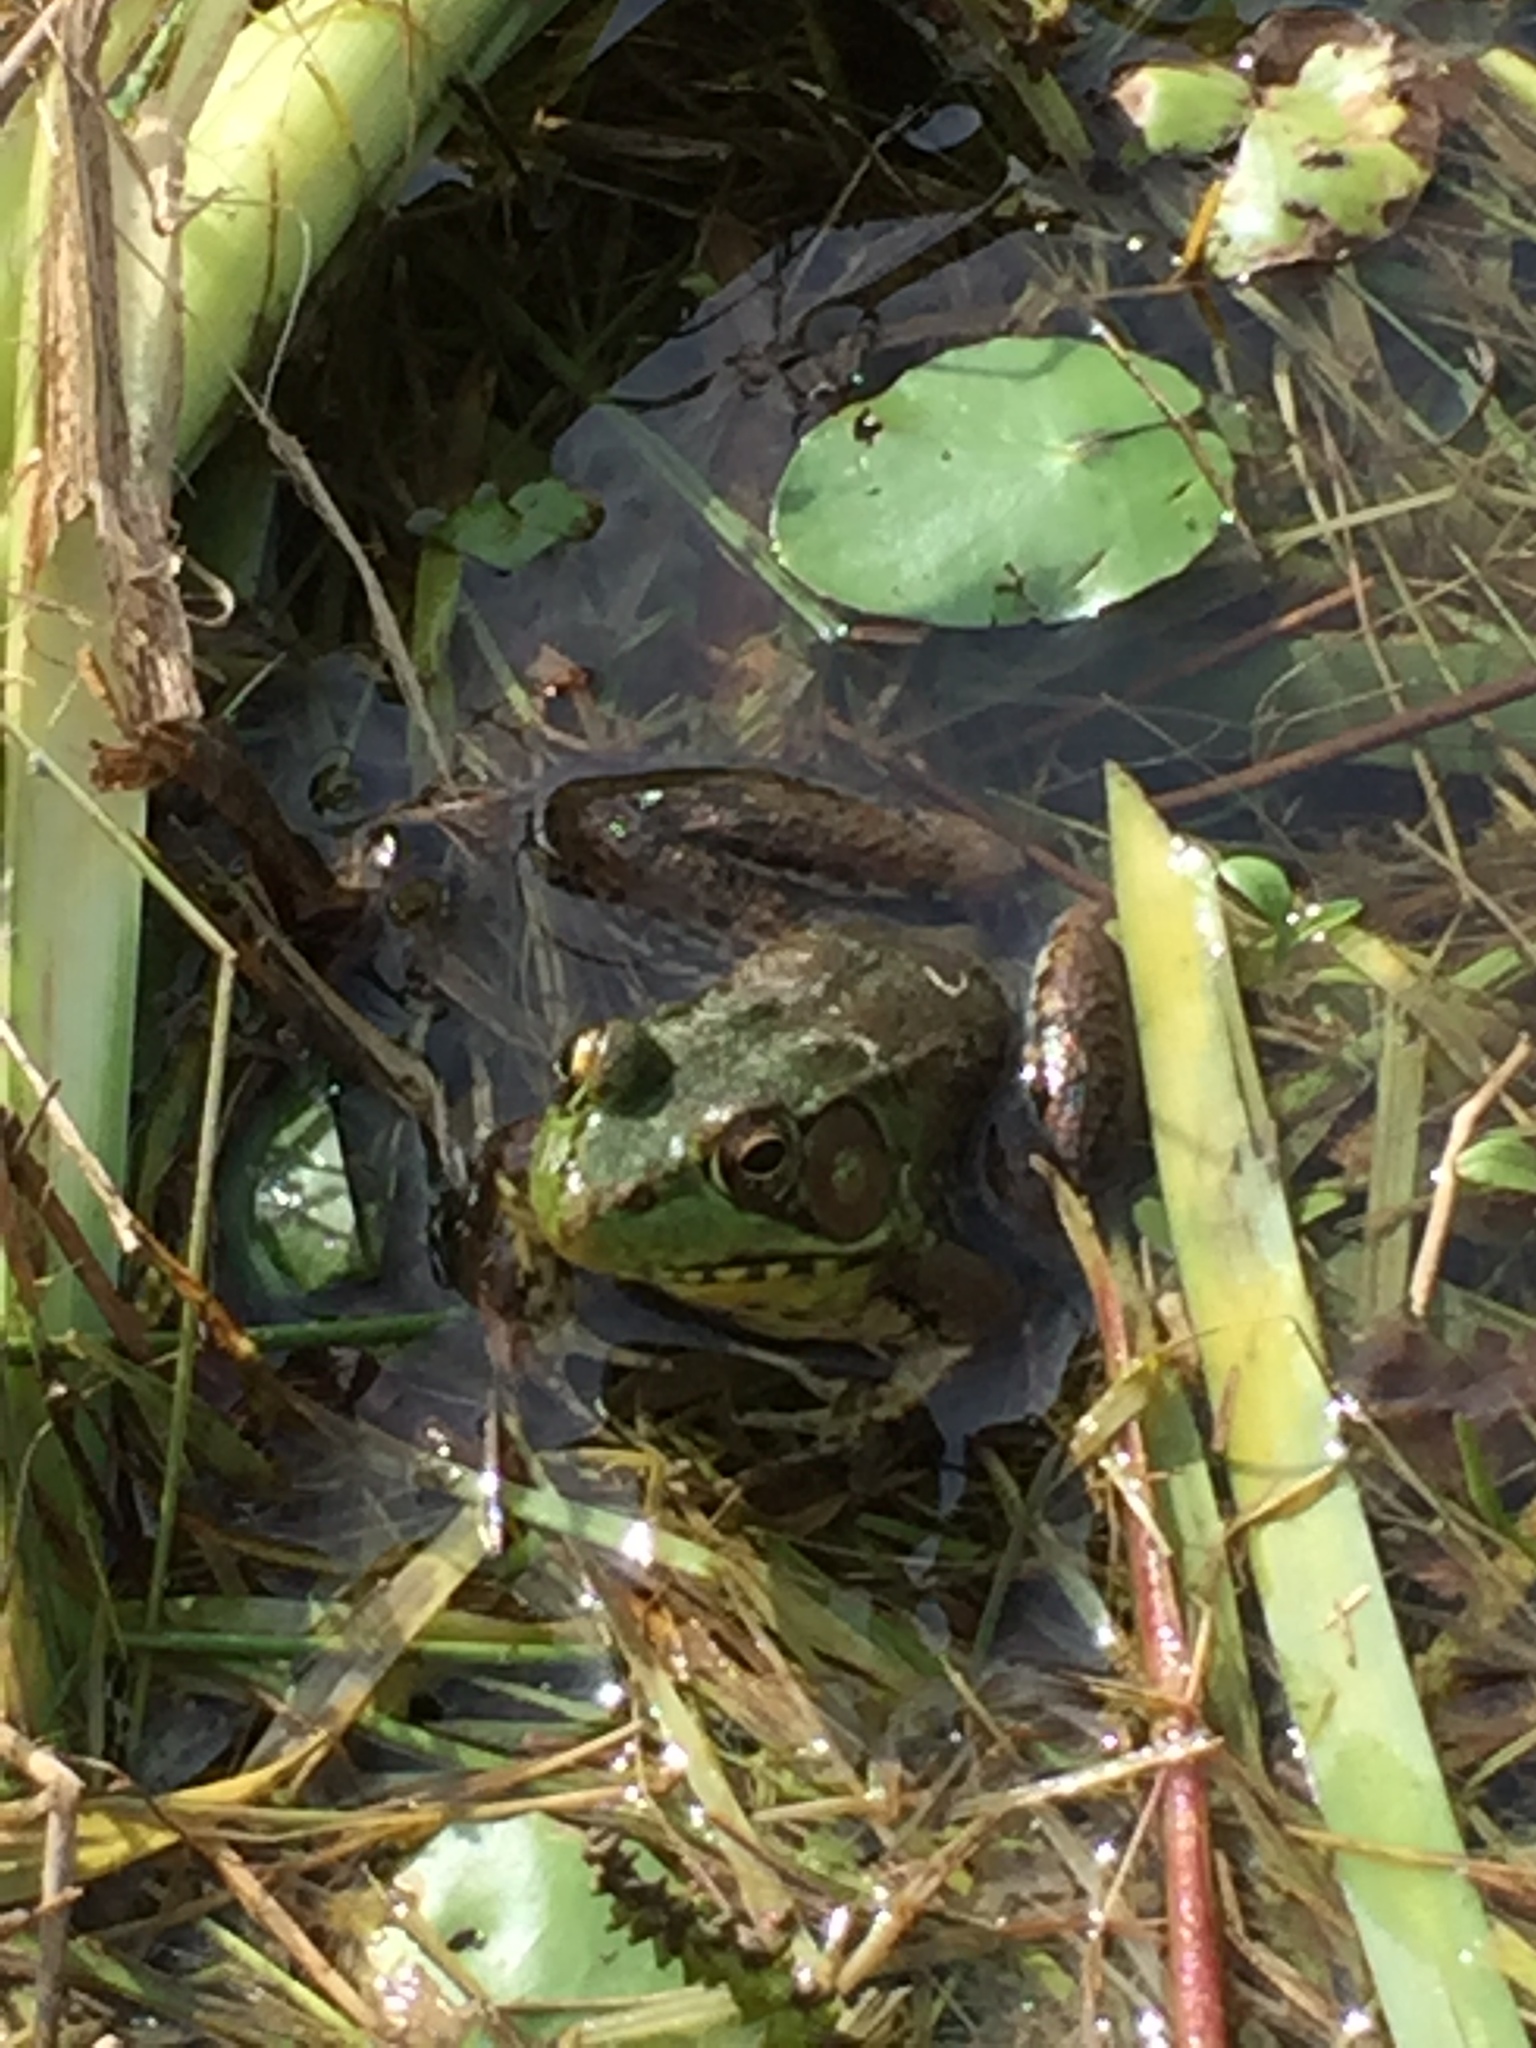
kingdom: Animalia
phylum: Chordata
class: Amphibia
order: Anura
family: Ranidae
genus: Lithobates
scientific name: Lithobates clamitans
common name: Green frog
